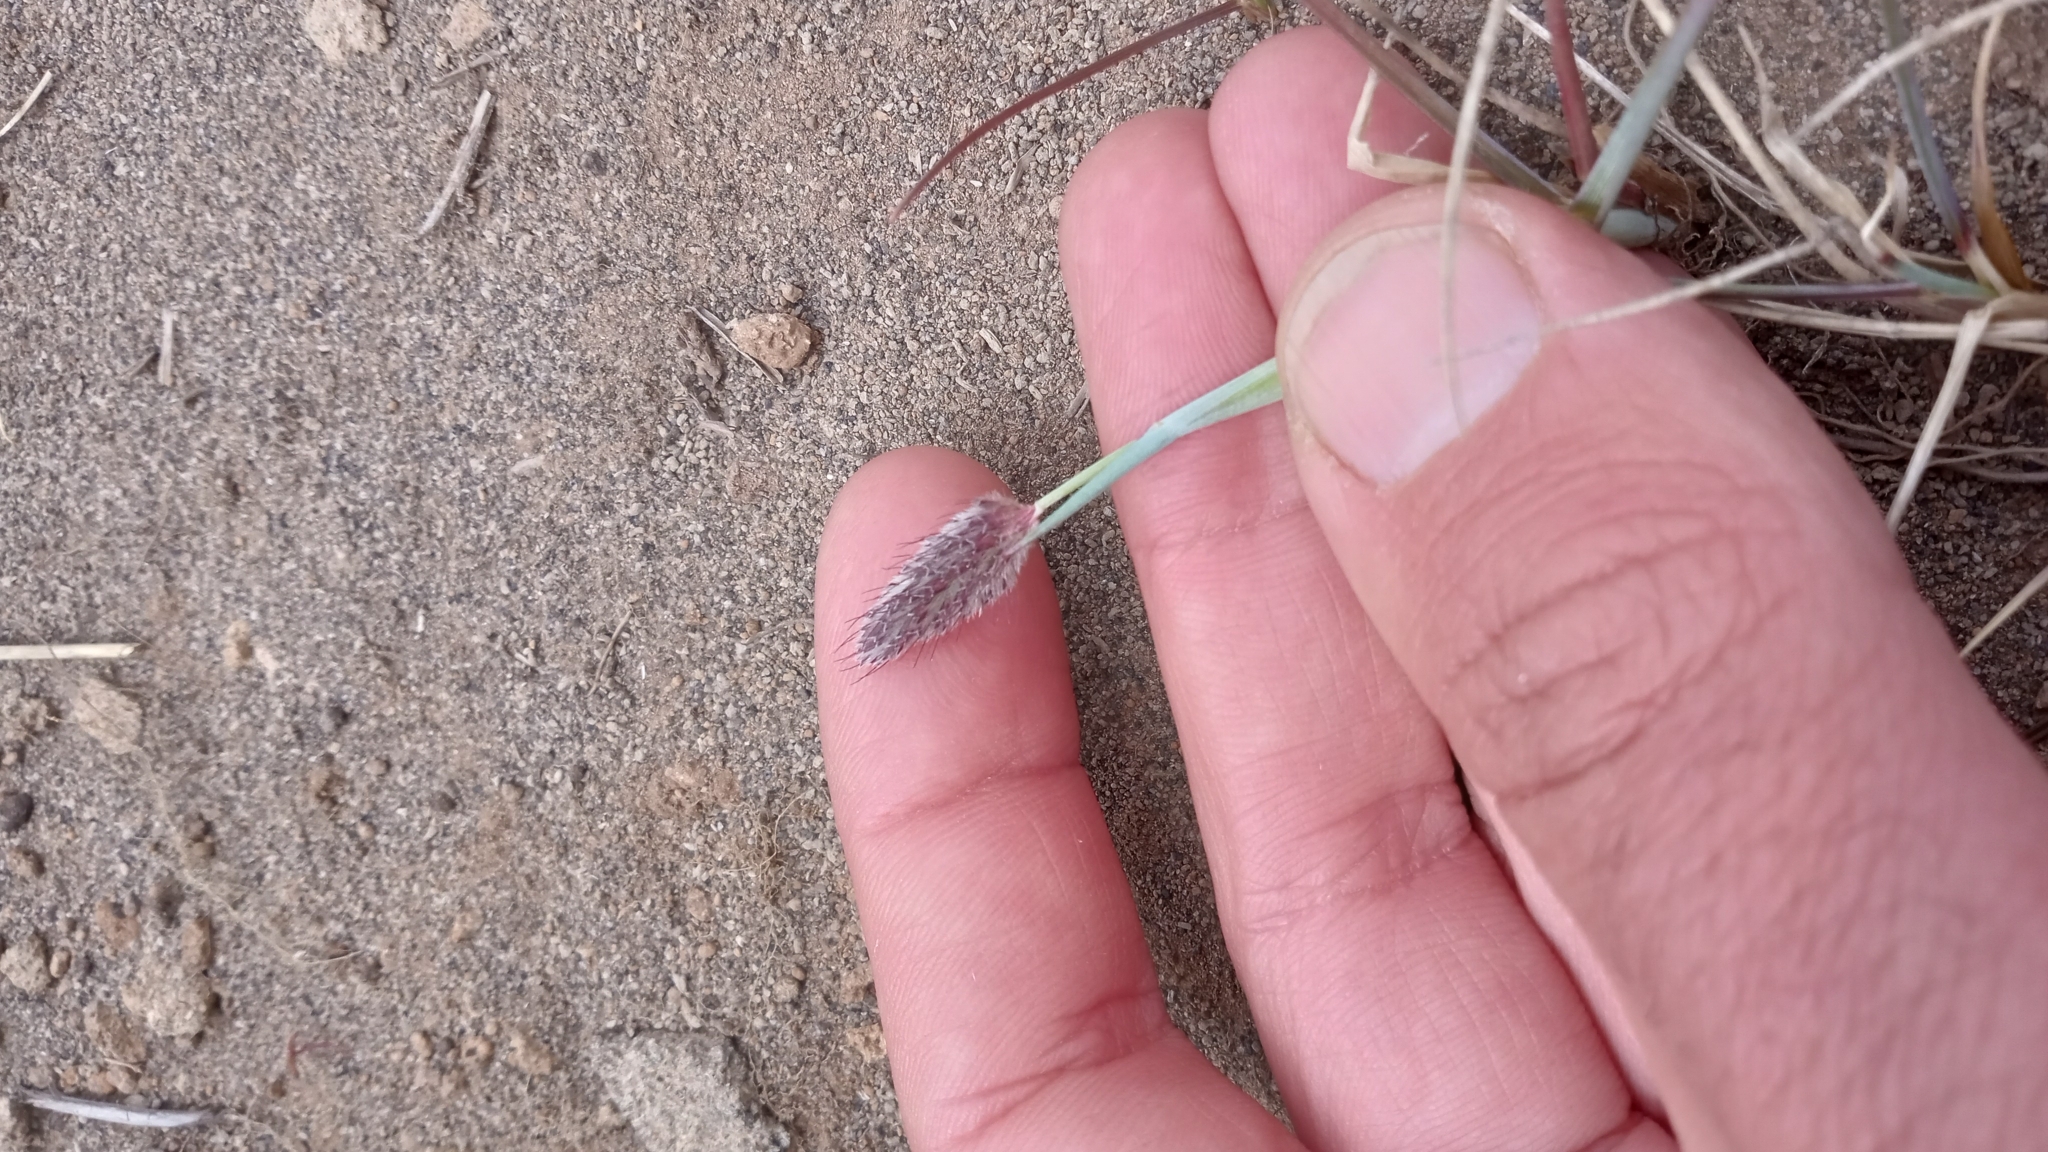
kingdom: Plantae
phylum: Tracheophyta
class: Liliopsida
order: Poales
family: Poaceae
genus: Alopecurus
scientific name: Alopecurus magellanicus
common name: Alpine foxtail
